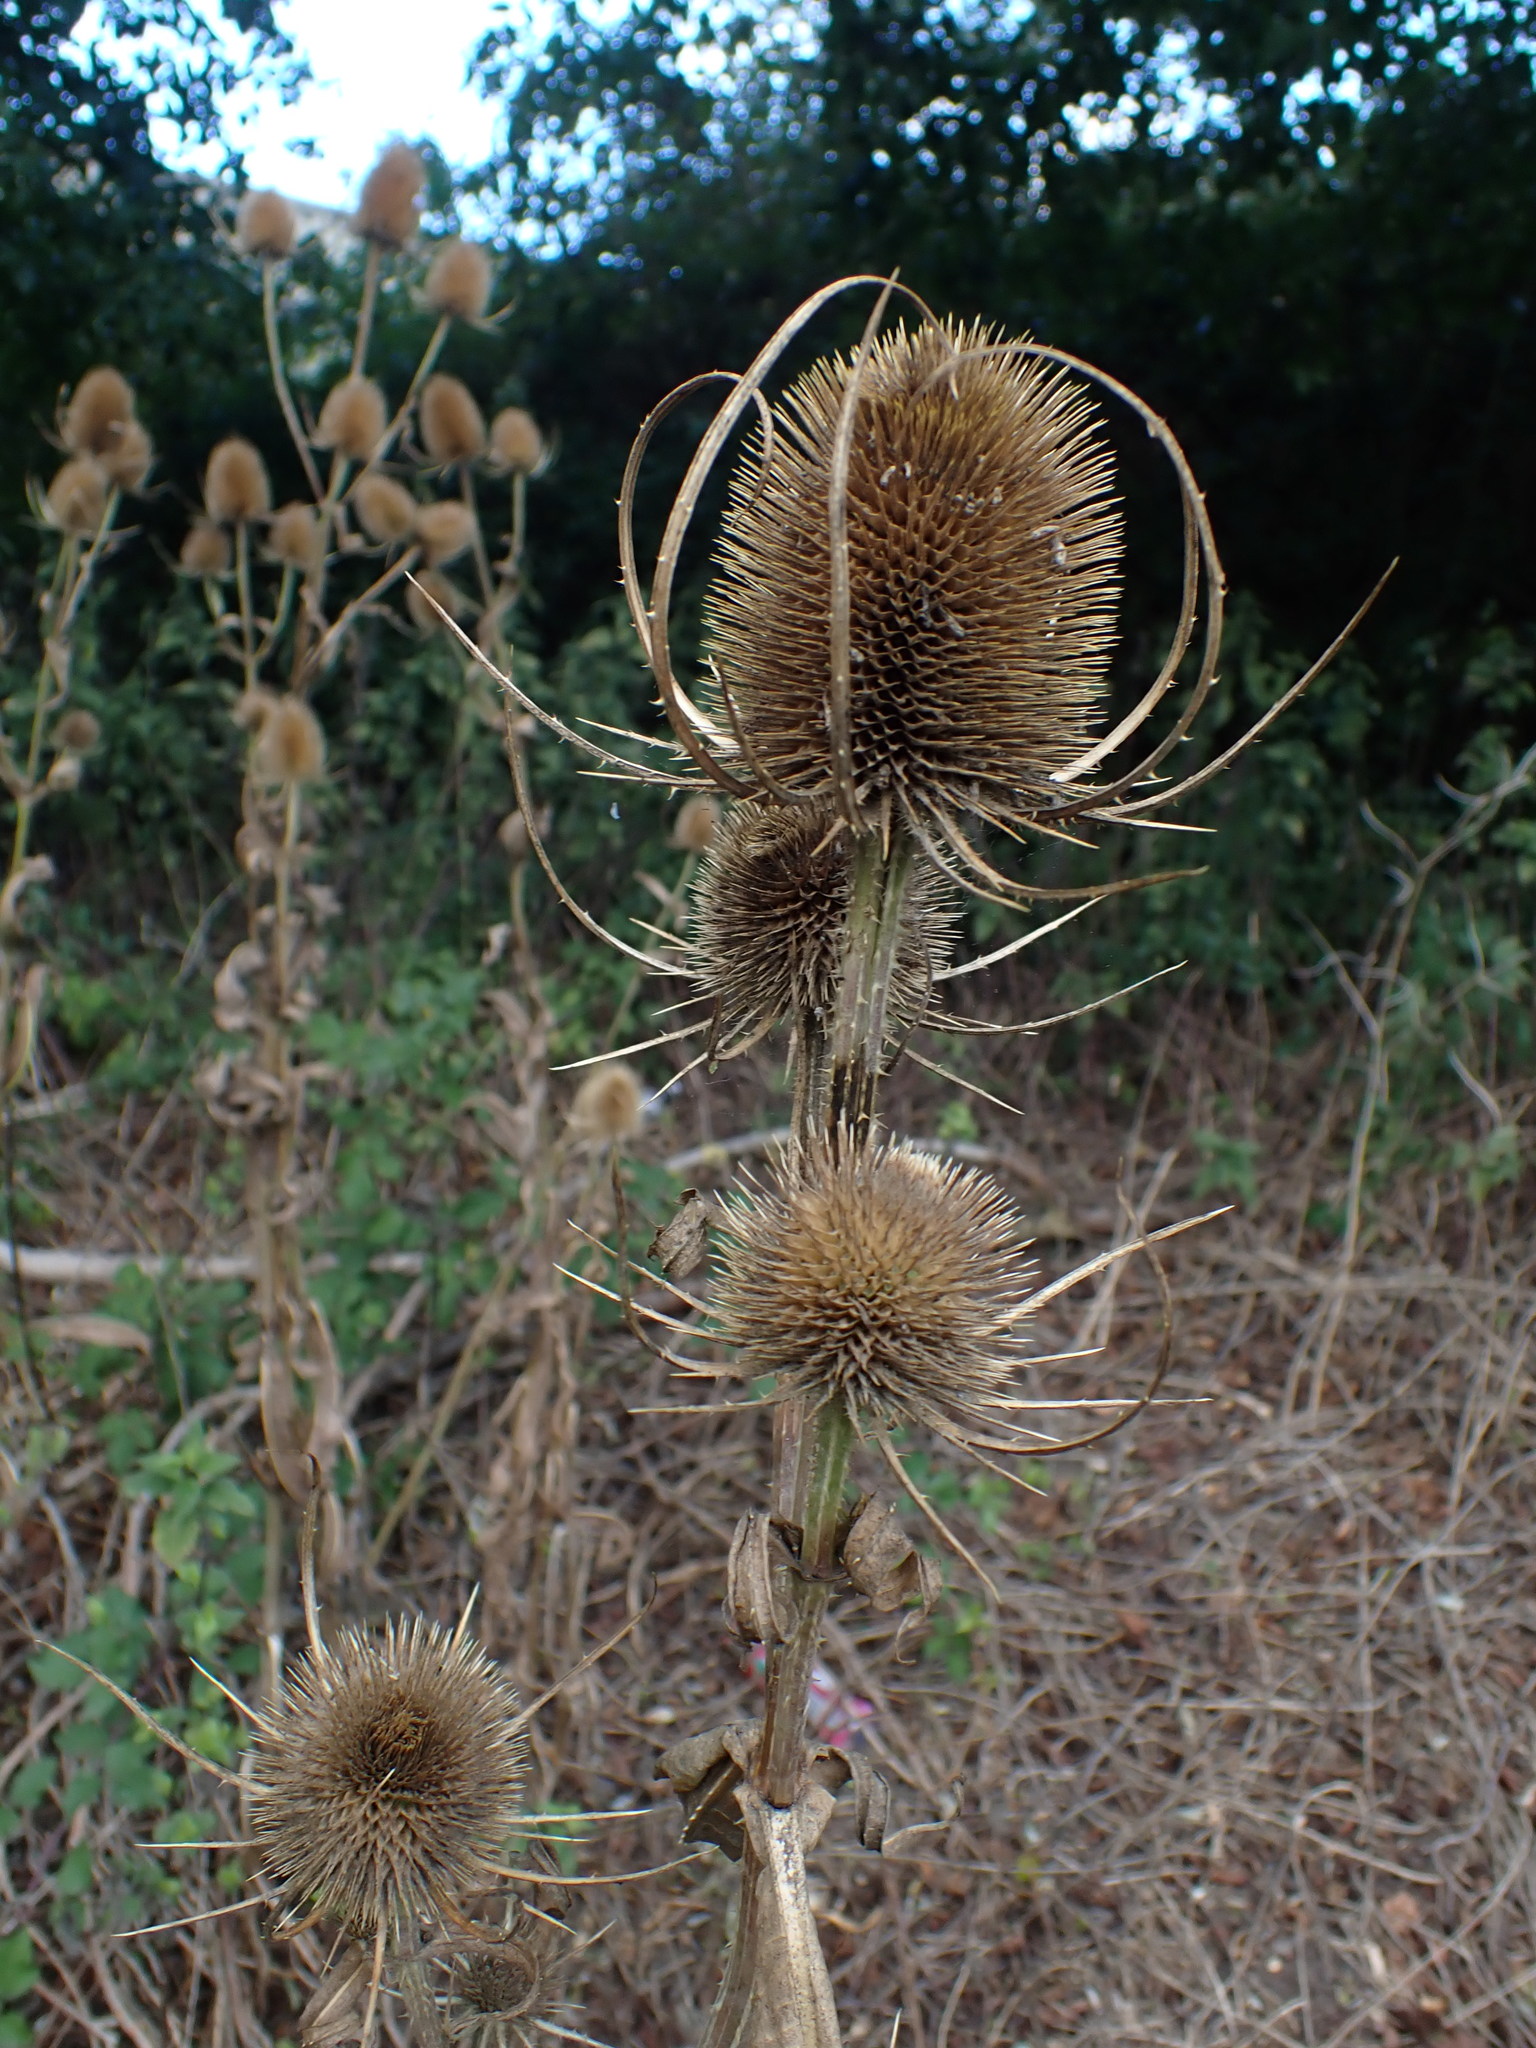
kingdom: Plantae
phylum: Tracheophyta
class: Magnoliopsida
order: Dipsacales
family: Caprifoliaceae
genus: Dipsacus
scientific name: Dipsacus fullonum
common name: Teasel
